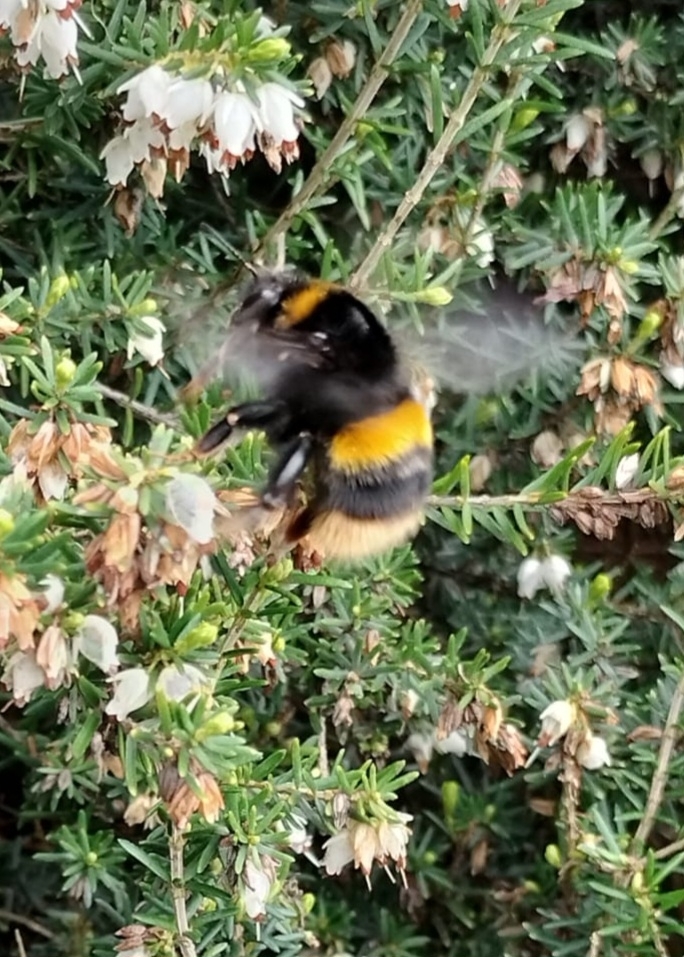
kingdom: Animalia
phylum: Arthropoda
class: Insecta
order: Hymenoptera
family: Apidae
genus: Bombus
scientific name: Bombus terrestris
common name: Buff-tailed bumblebee
